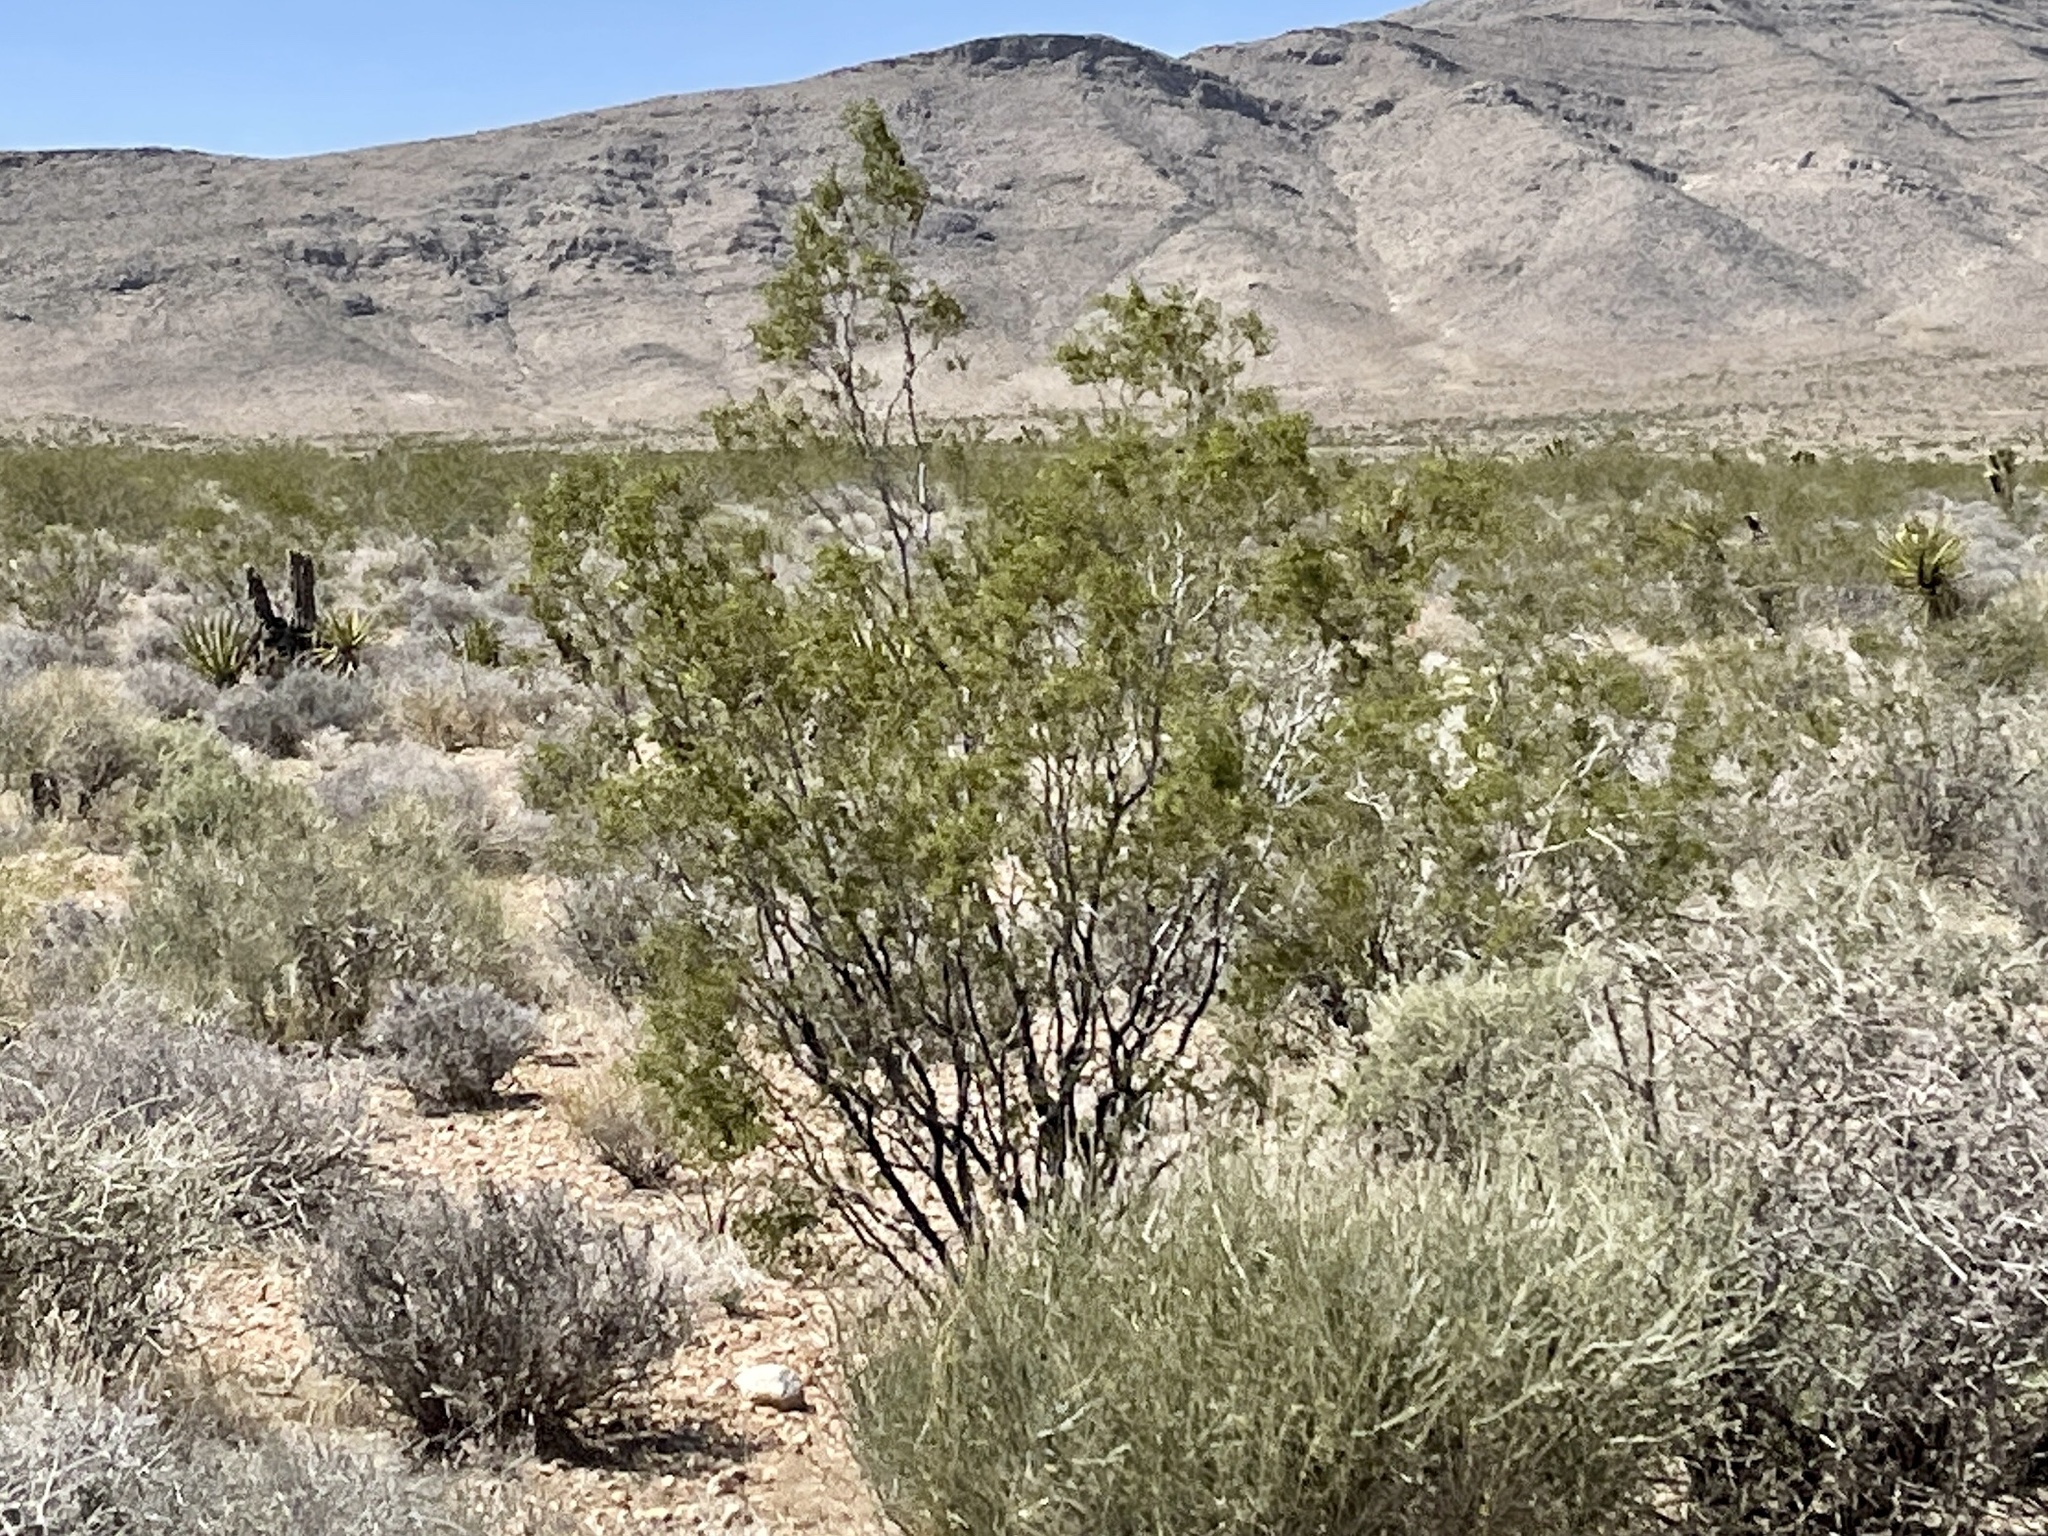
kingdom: Plantae
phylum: Tracheophyta
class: Magnoliopsida
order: Zygophyllales
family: Zygophyllaceae
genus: Larrea
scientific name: Larrea tridentata
